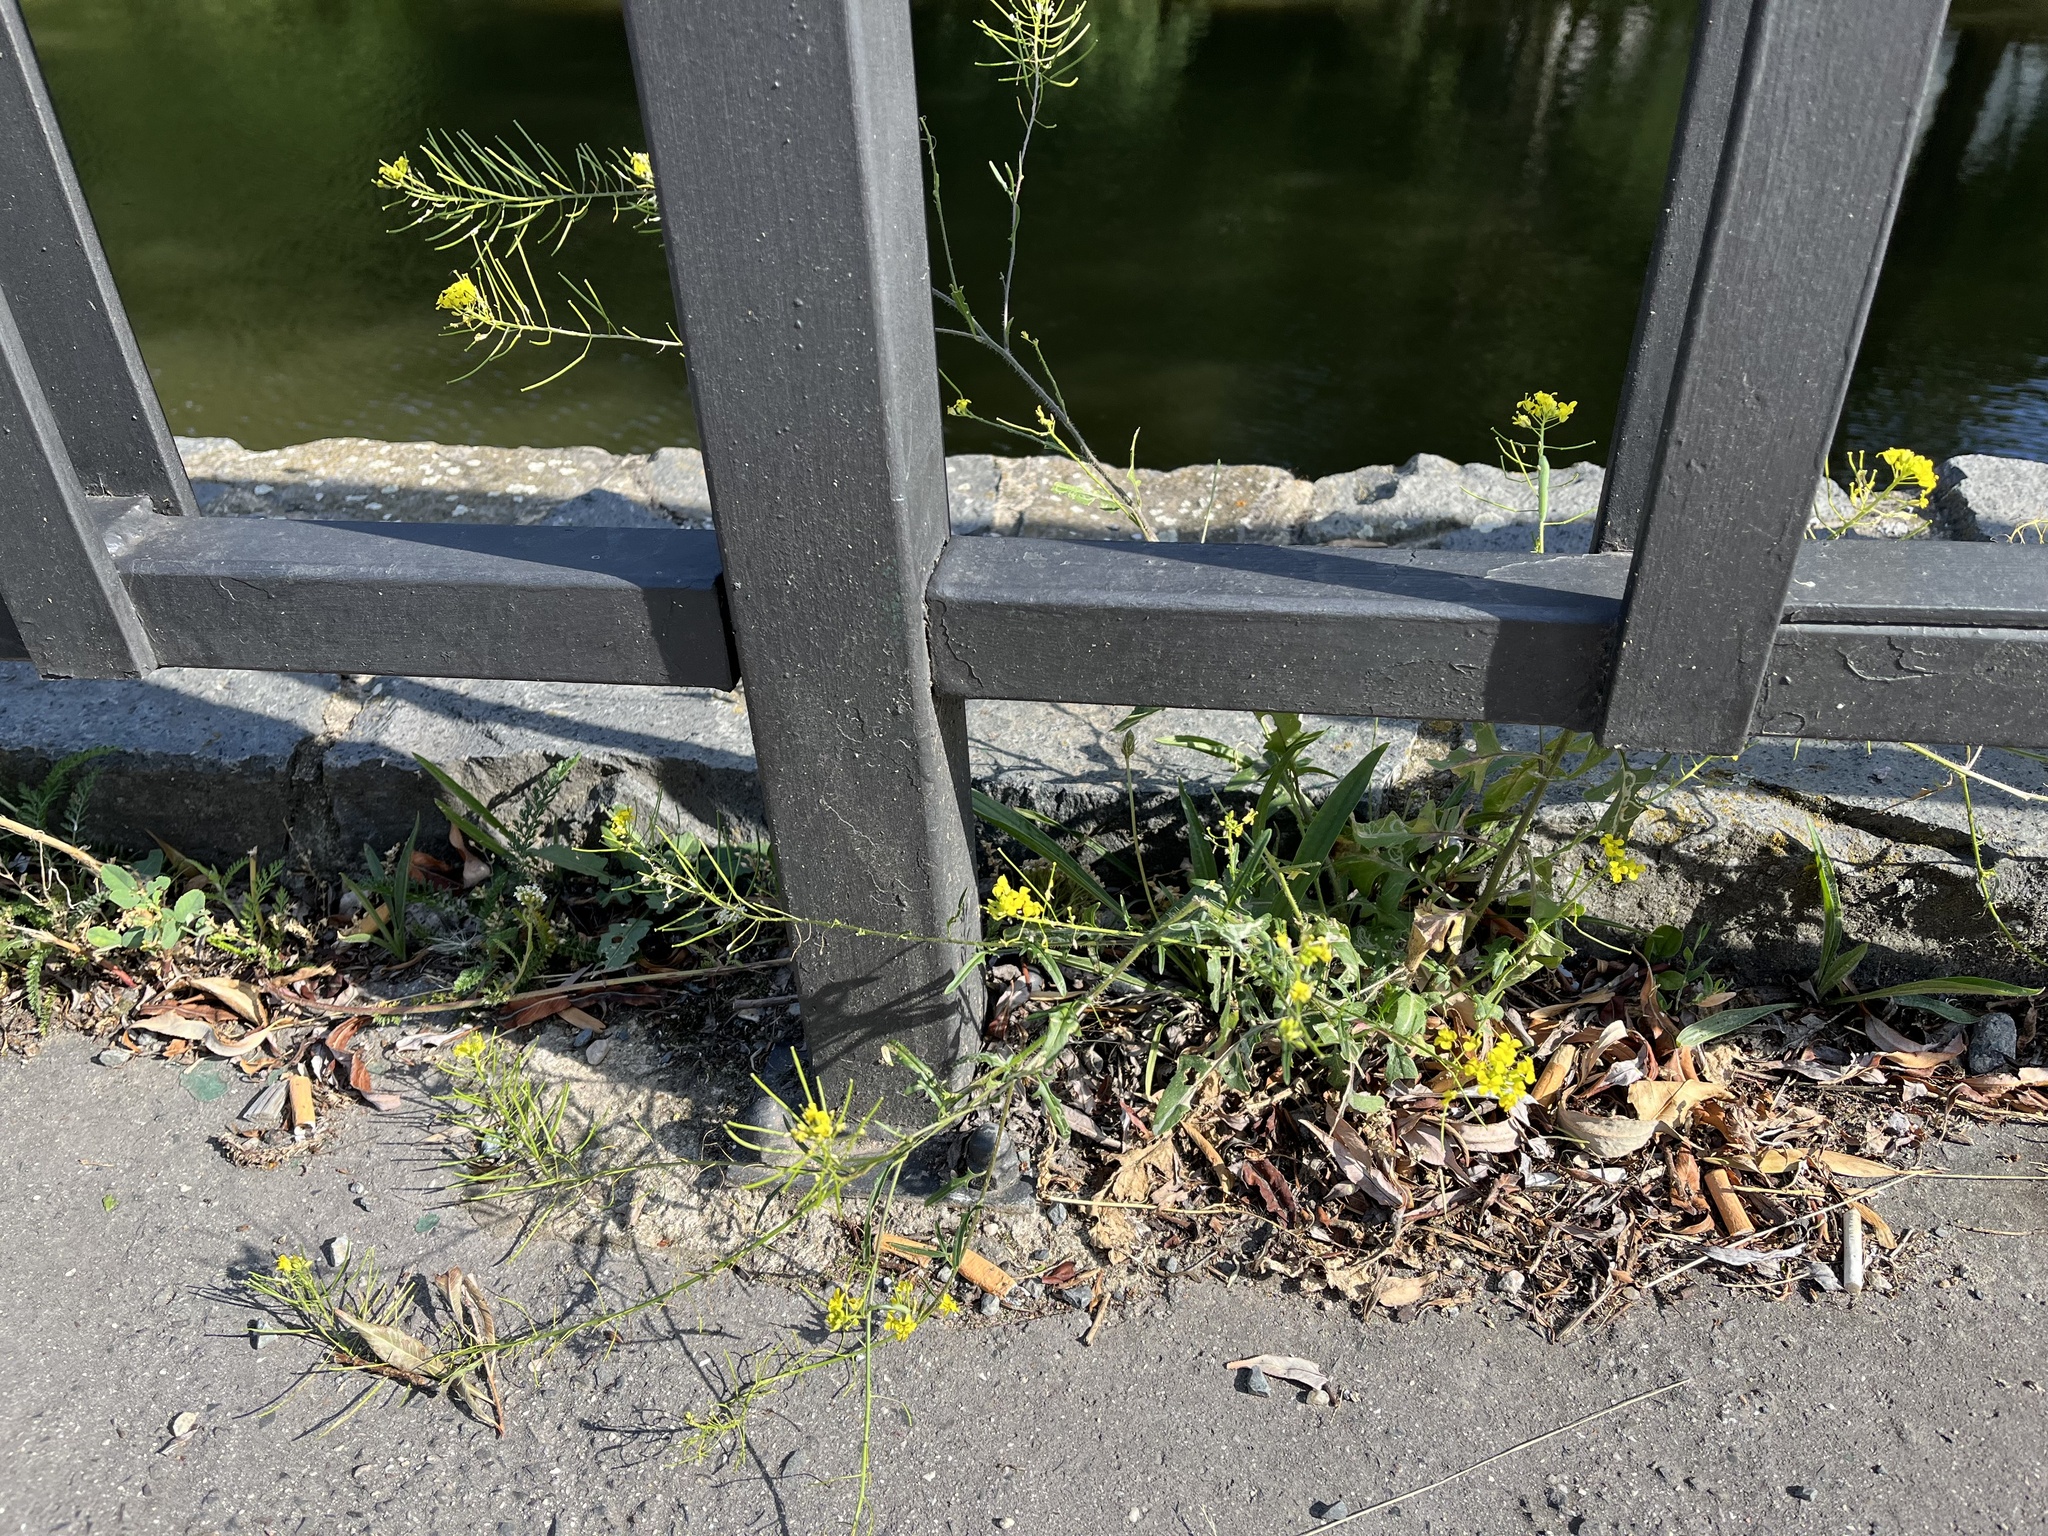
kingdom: Plantae
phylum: Tracheophyta
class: Magnoliopsida
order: Brassicales
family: Brassicaceae
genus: Sisymbrium
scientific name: Sisymbrium loeselii
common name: False london-rocket
